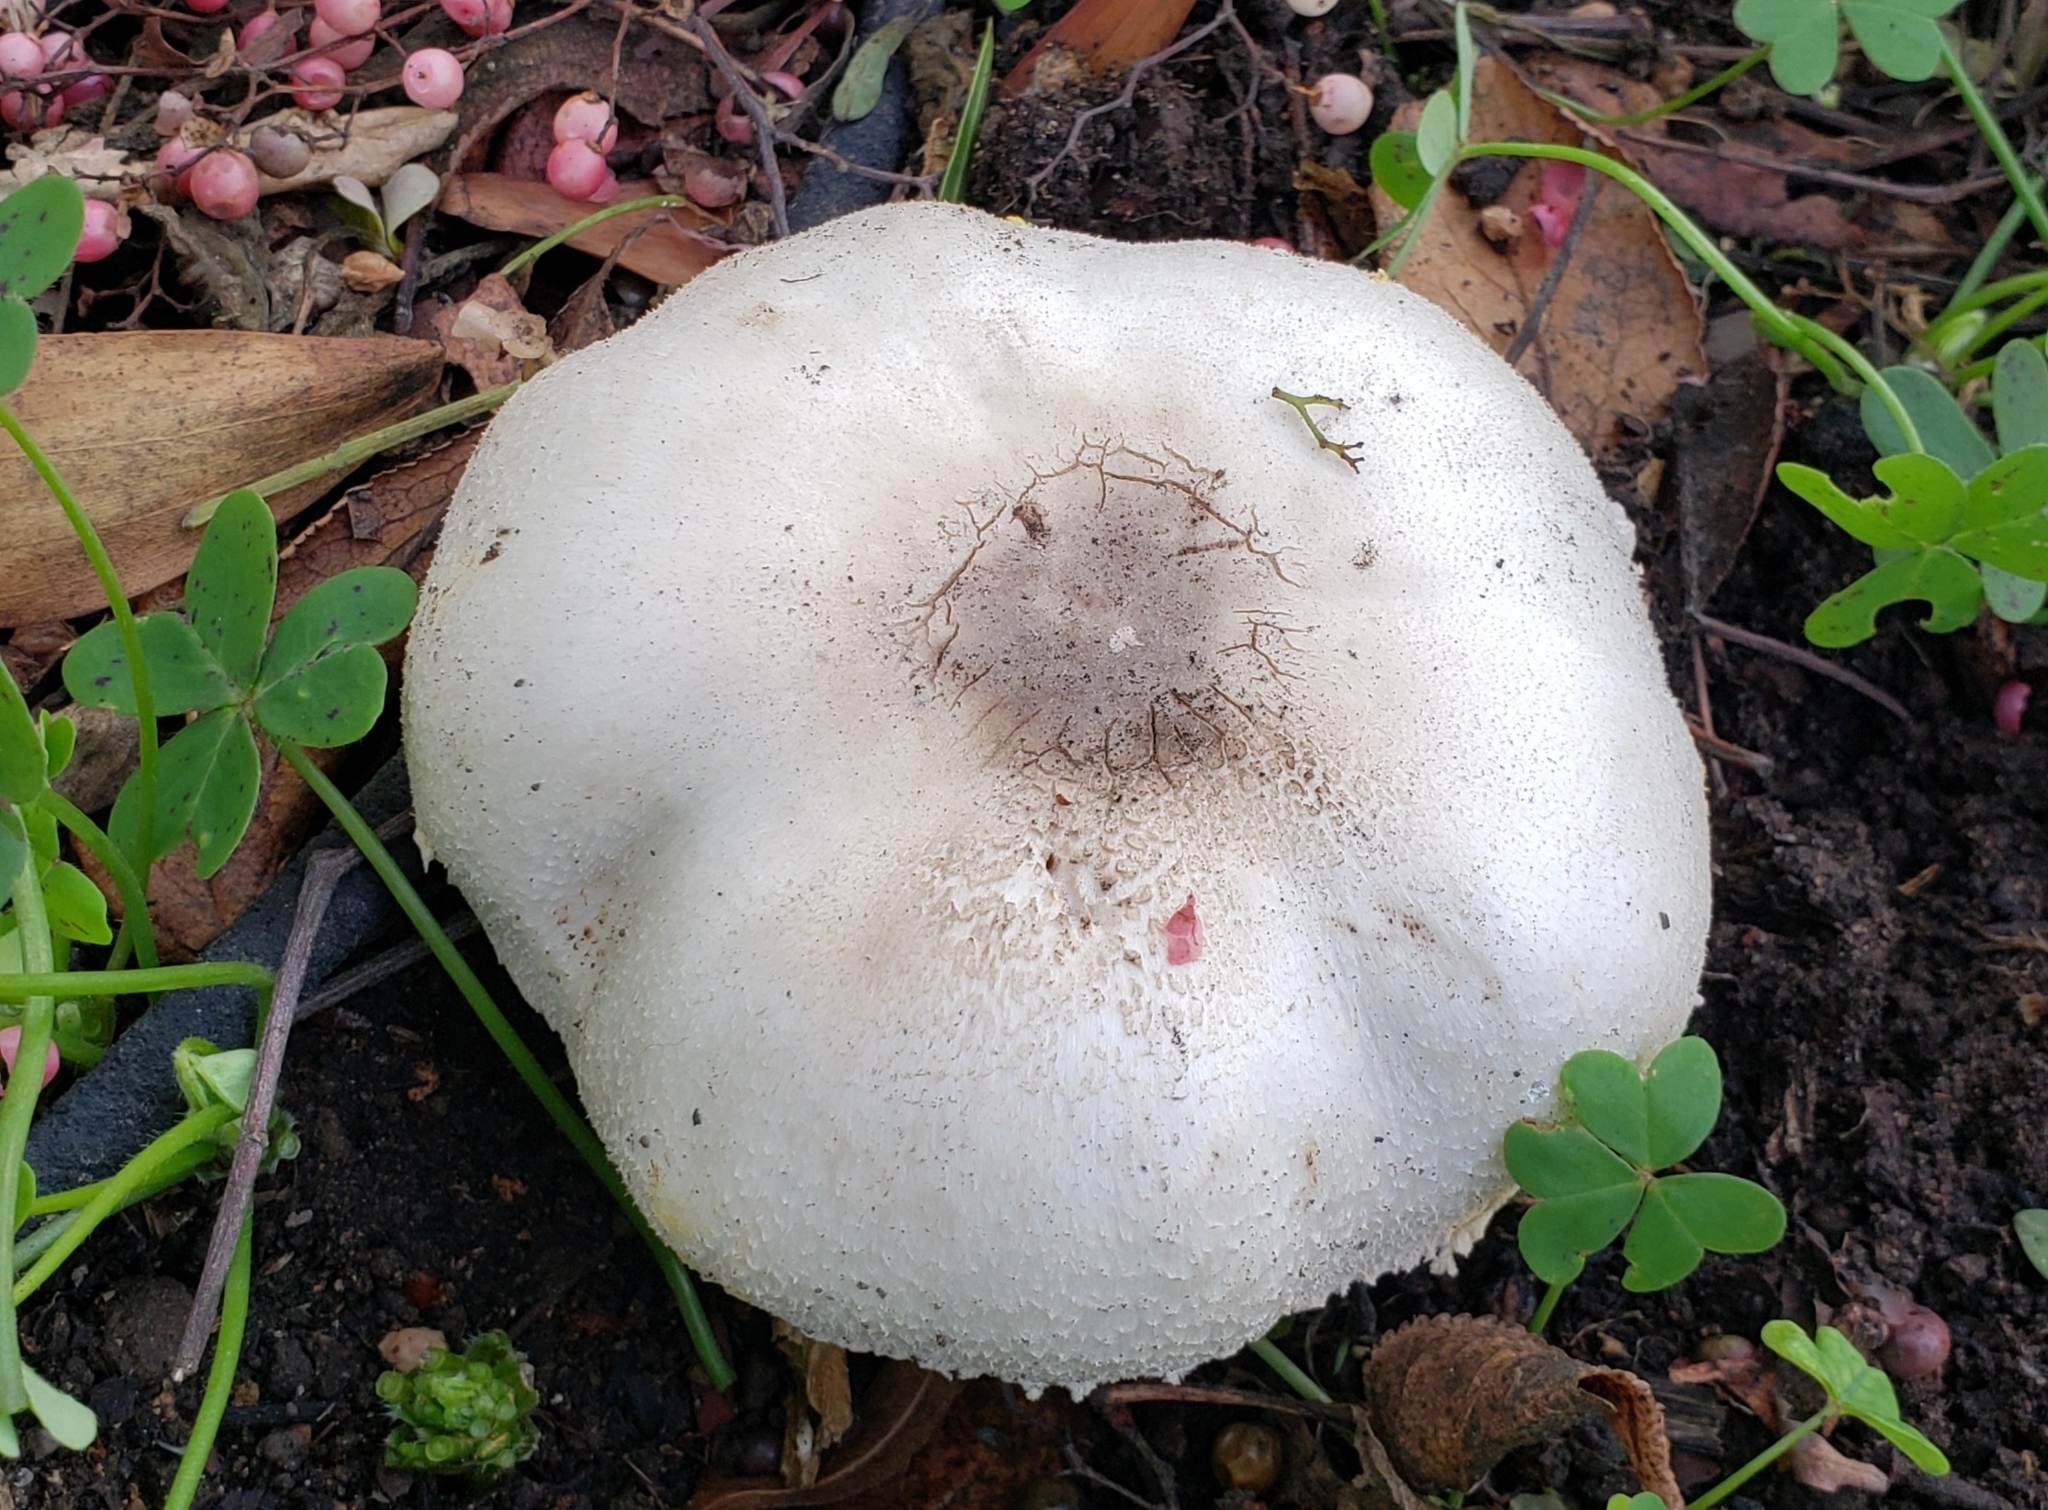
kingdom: Fungi
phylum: Basidiomycota
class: Agaricomycetes
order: Agaricales
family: Agaricaceae
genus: Agaricus
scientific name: Agaricus xanthodermus
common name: Yellow stainer
